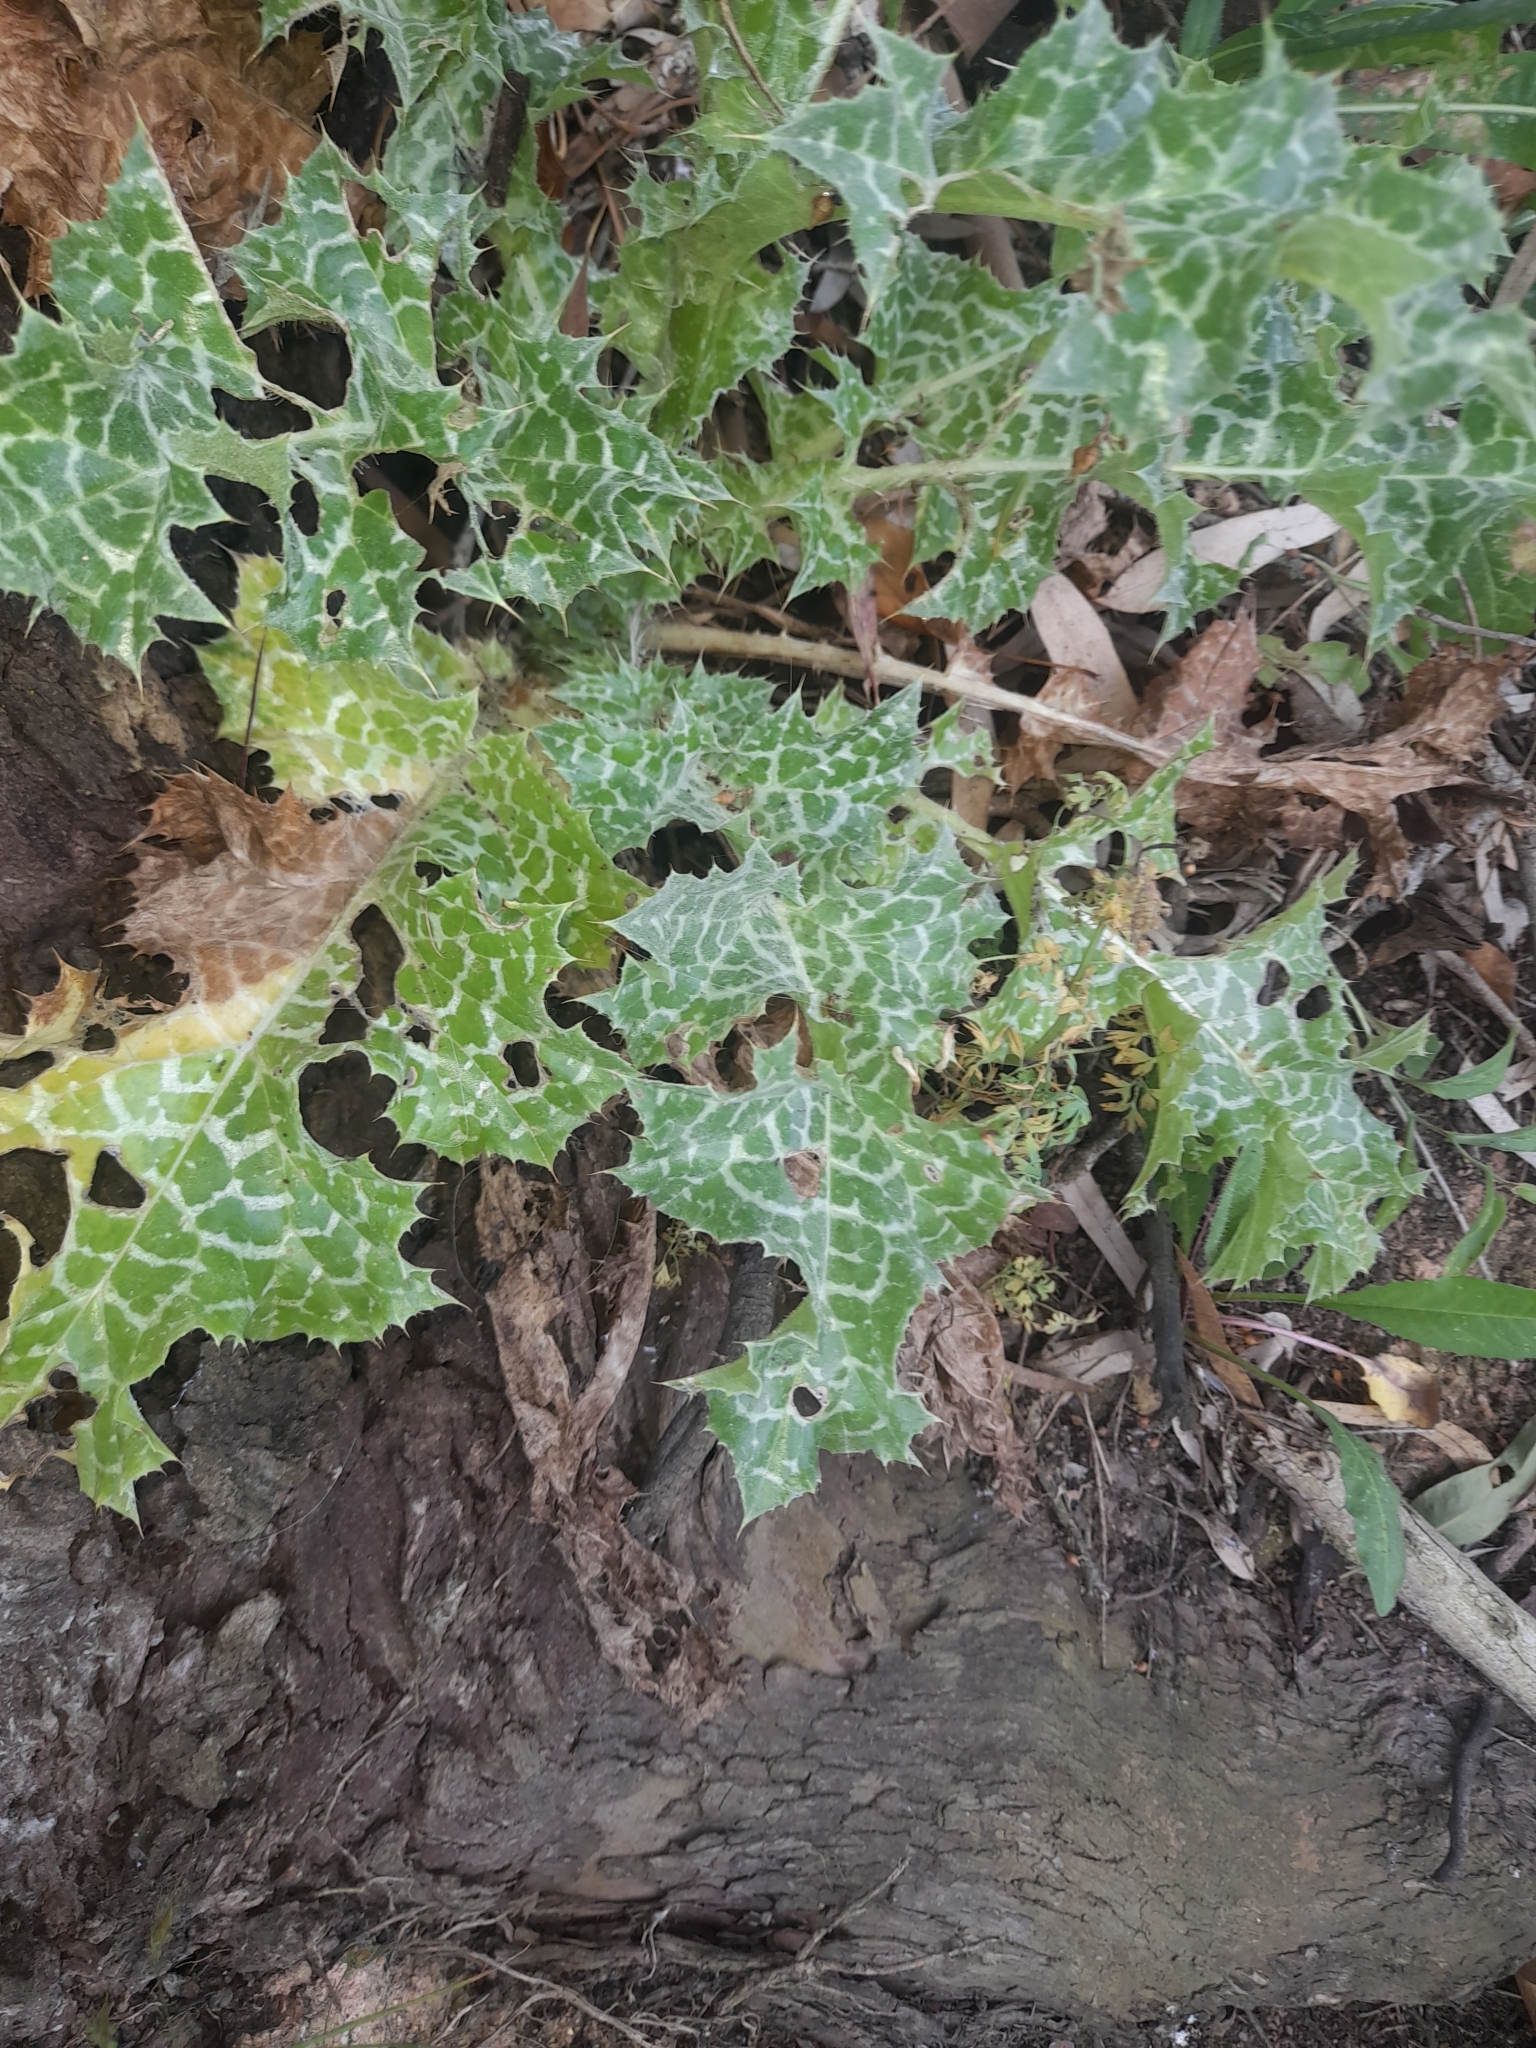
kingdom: Plantae
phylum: Tracheophyta
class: Magnoliopsida
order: Asterales
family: Asteraceae
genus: Silybum
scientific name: Silybum marianum
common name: Milk thistle
